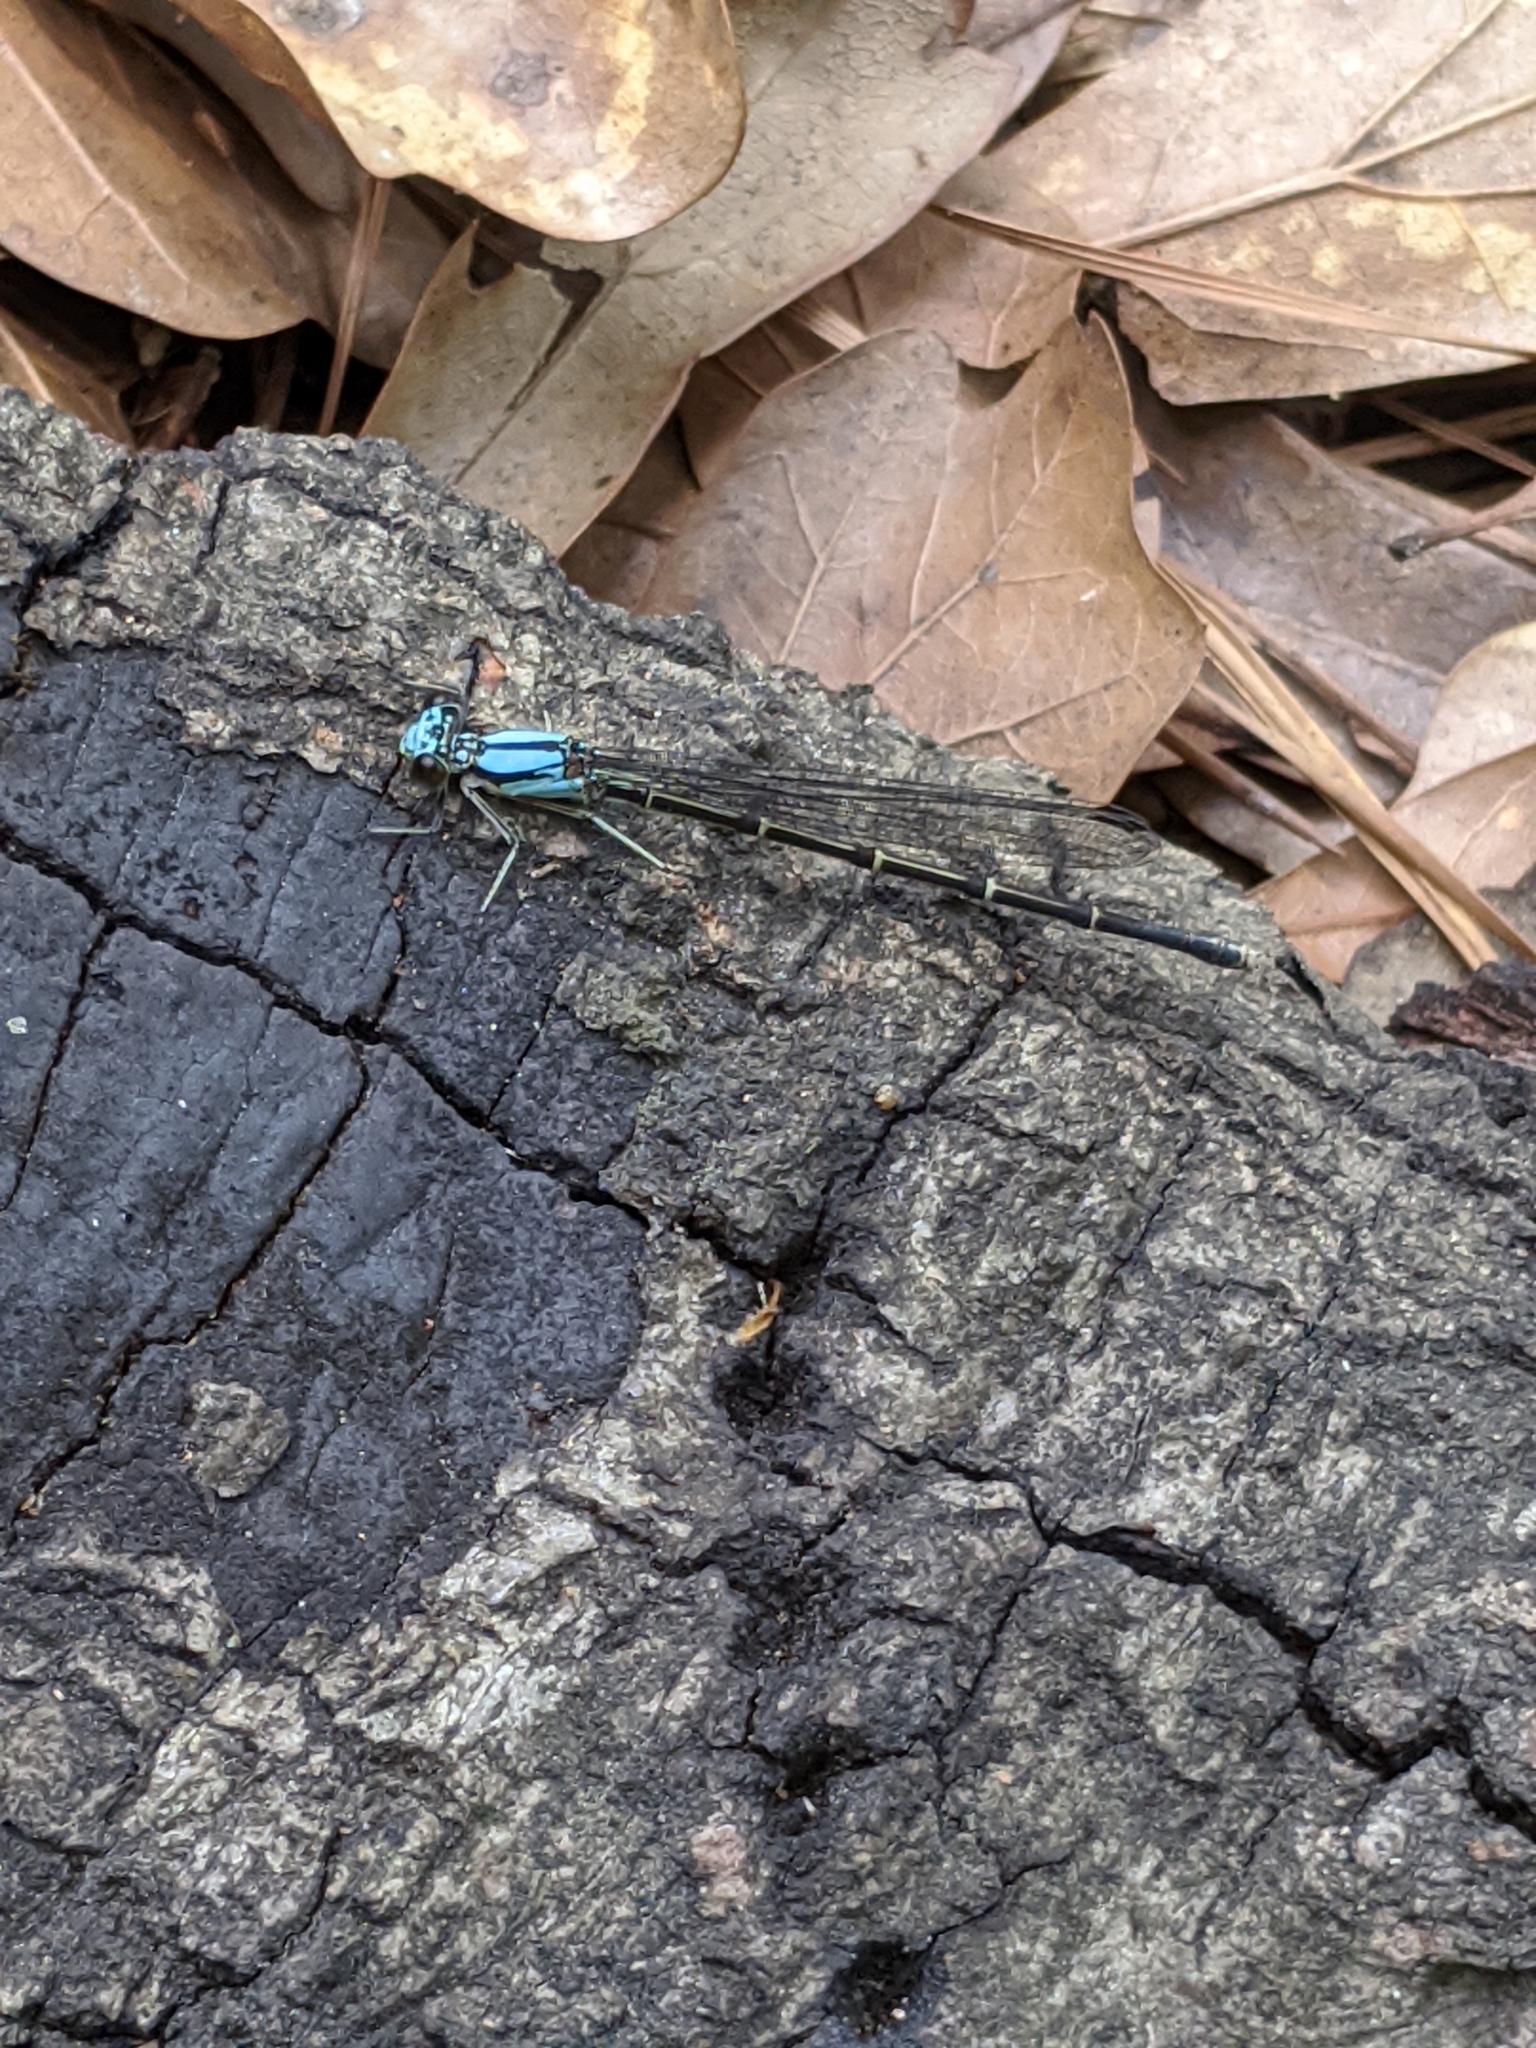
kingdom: Animalia
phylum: Arthropoda
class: Insecta
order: Odonata
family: Coenagrionidae
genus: Argia
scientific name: Argia tibialis
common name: Blue-tipped dancer
